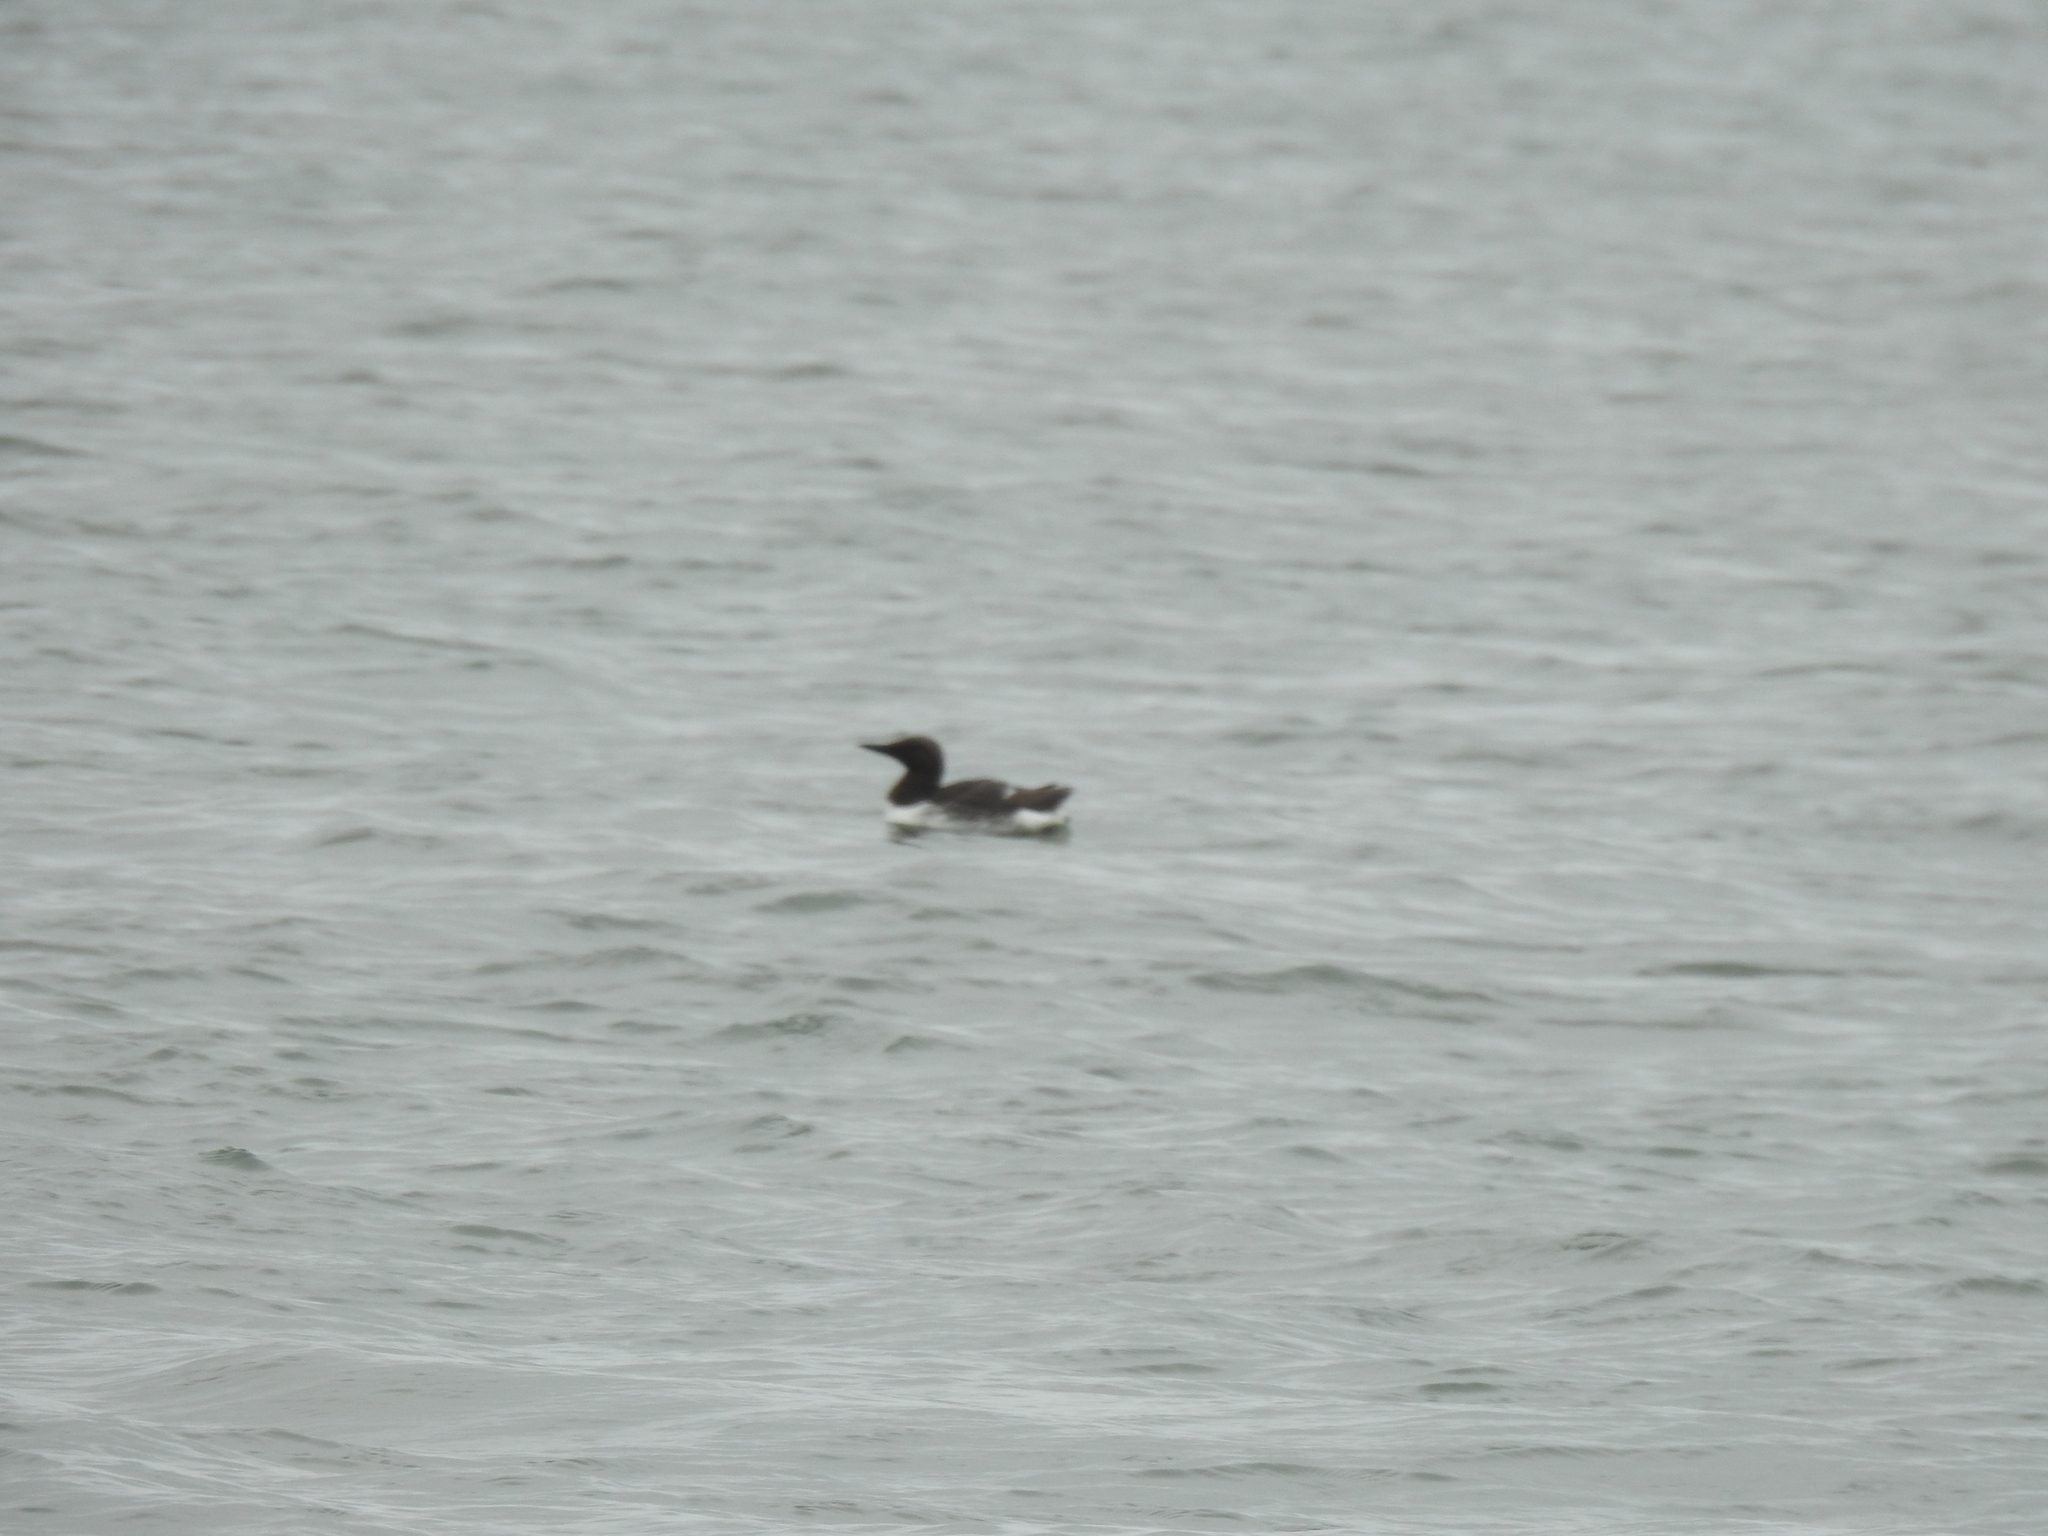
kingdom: Animalia
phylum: Chordata
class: Aves
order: Charadriiformes
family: Alcidae
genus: Uria
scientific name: Uria aalge
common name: Common murre
